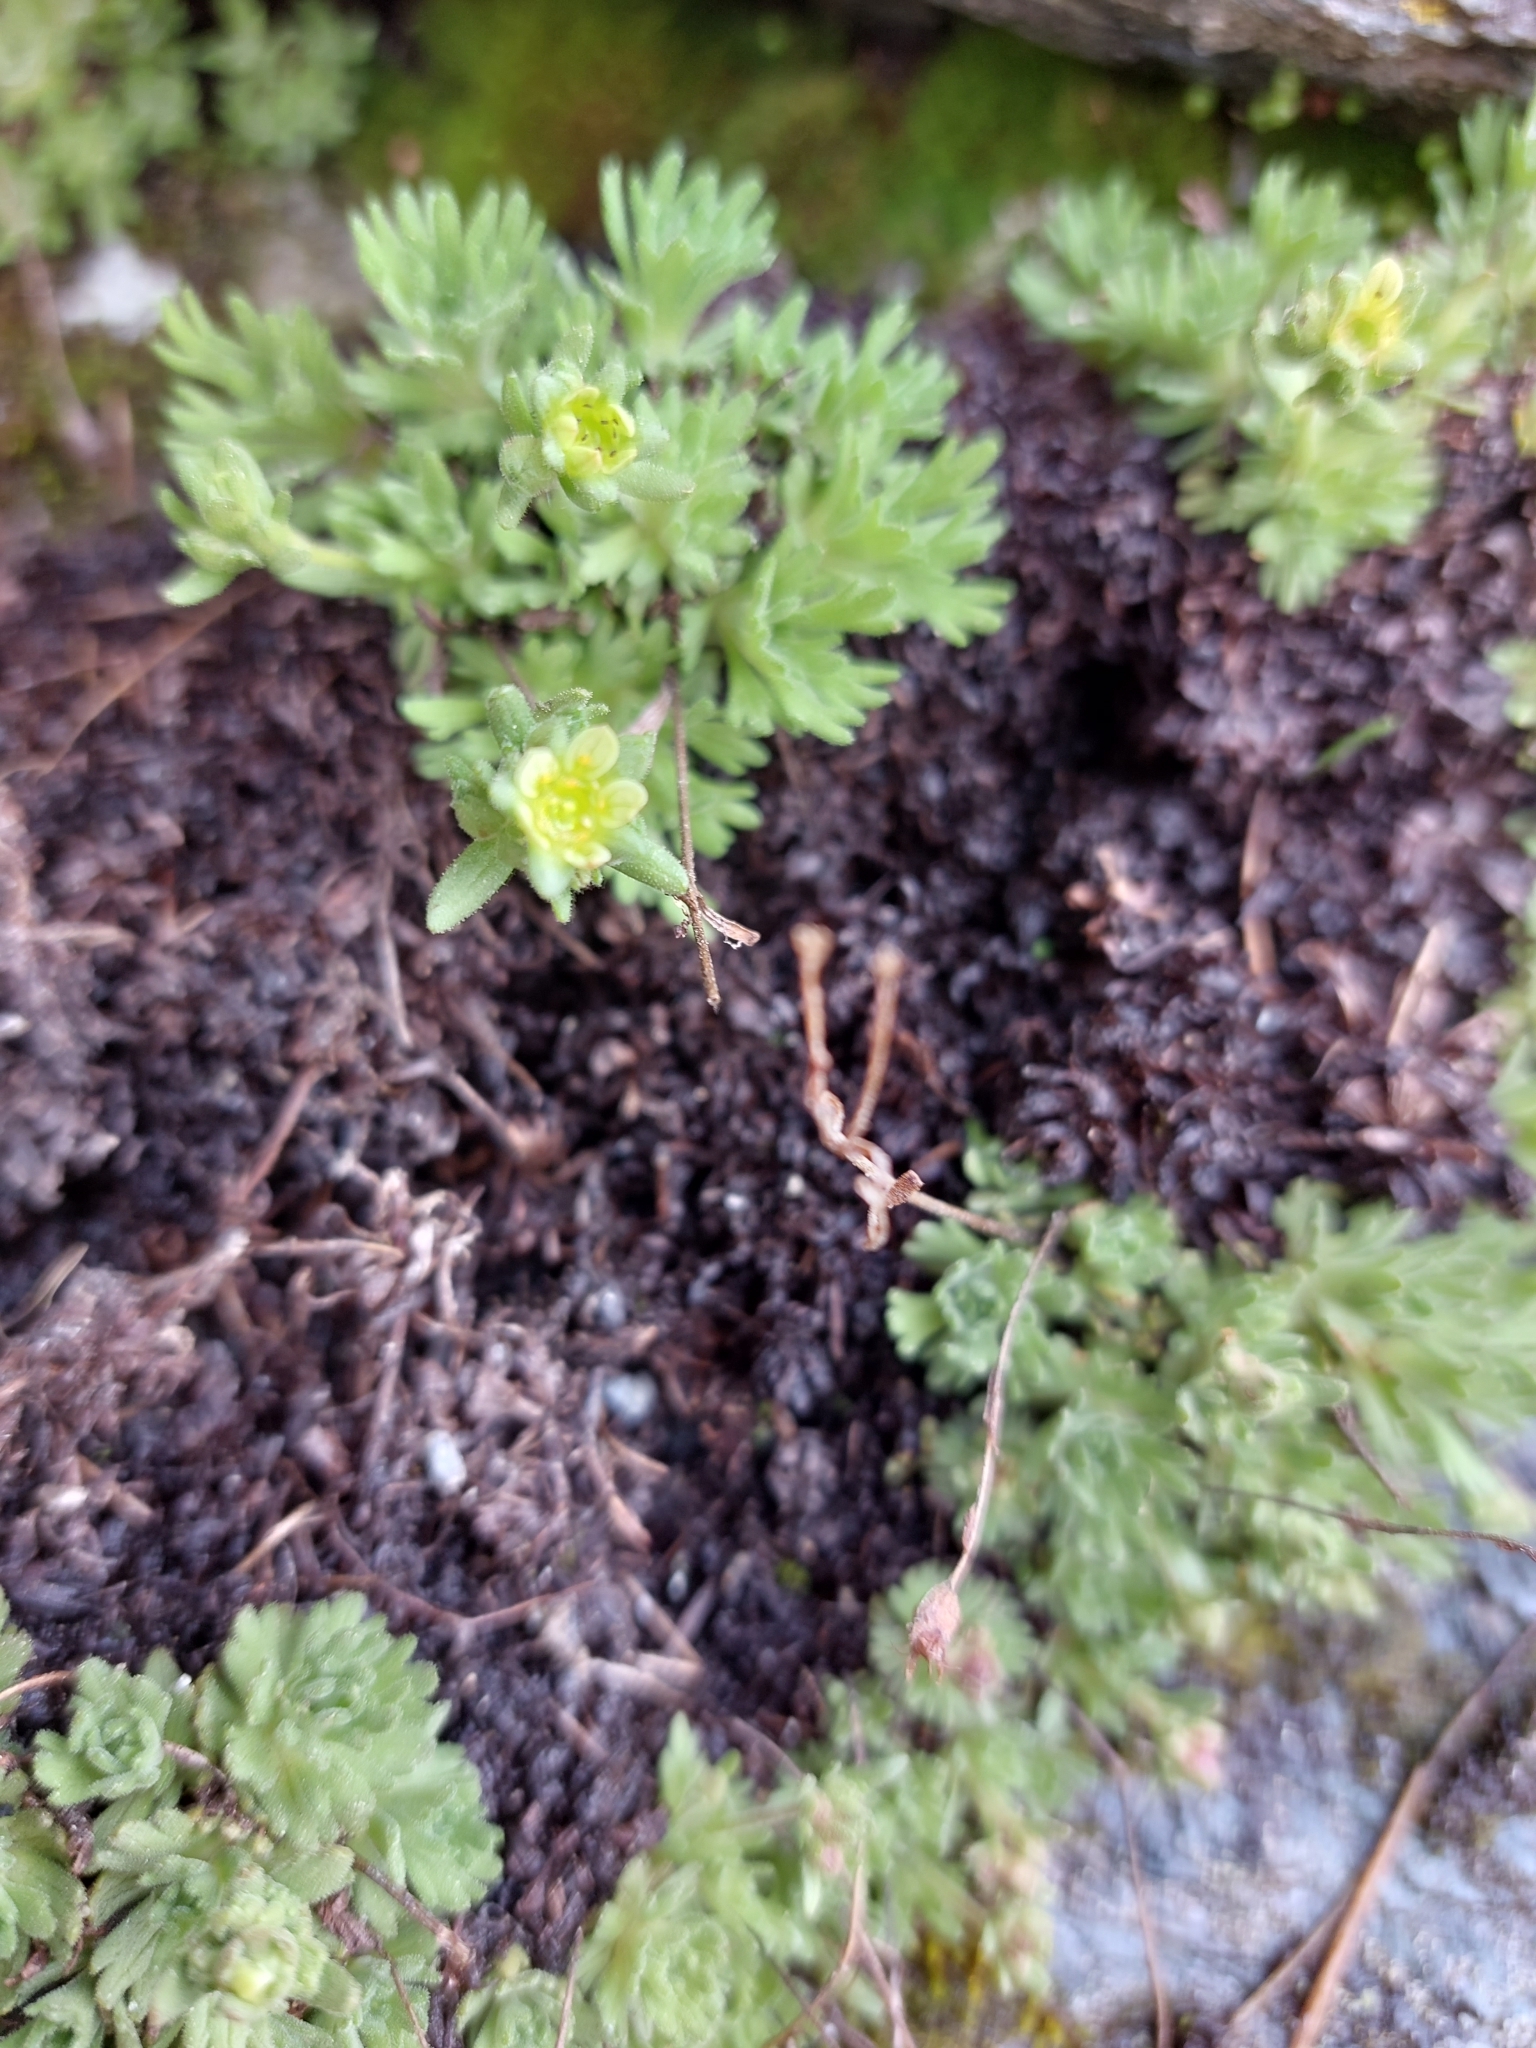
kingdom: Plantae
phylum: Tracheophyta
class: Magnoliopsida
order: Saxifragales
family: Saxifragaceae
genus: Saxifraga
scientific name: Saxifraga exarata
